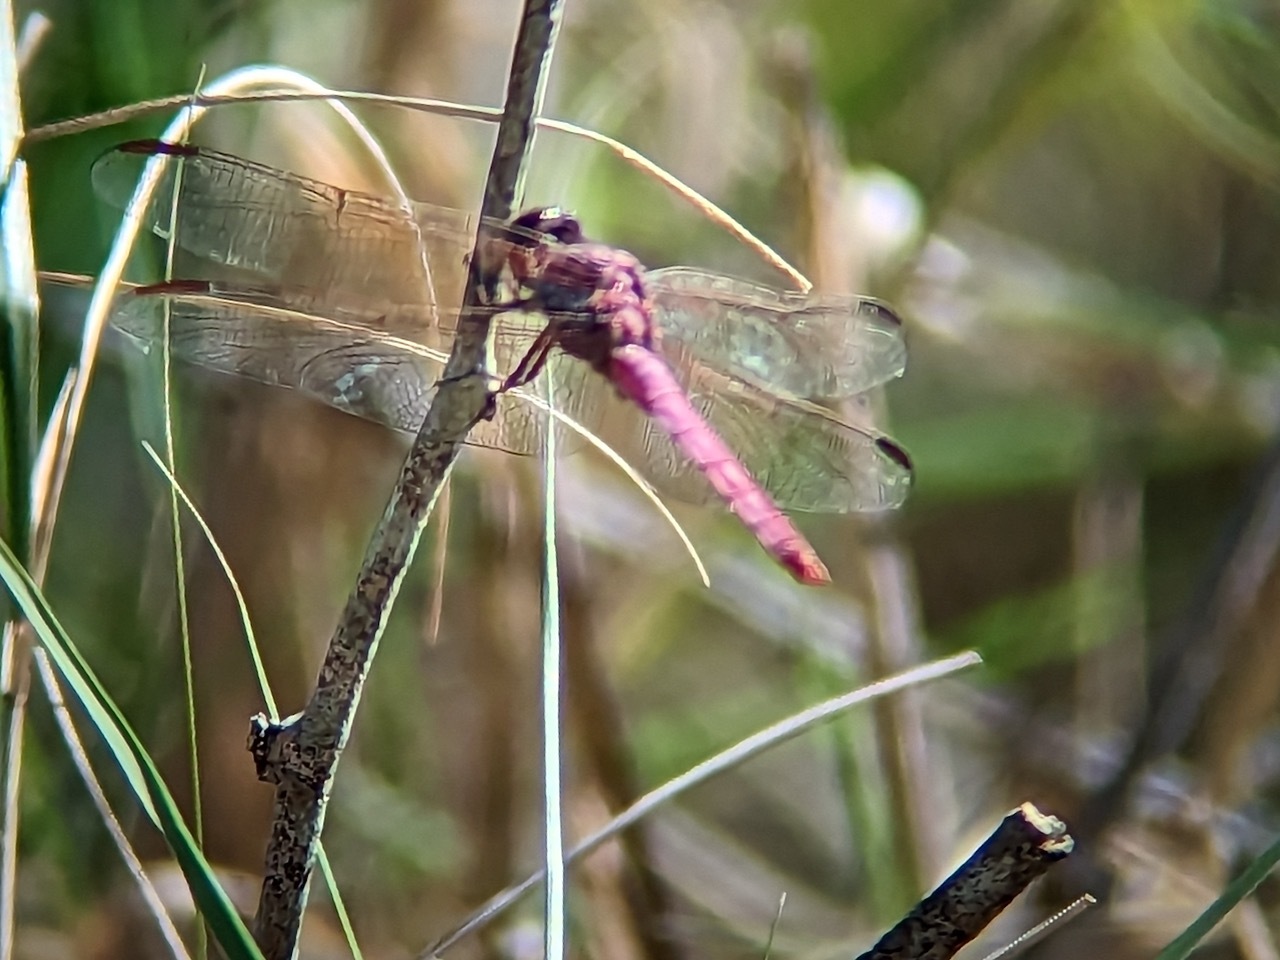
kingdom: Animalia
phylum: Arthropoda
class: Insecta
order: Odonata
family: Libellulidae
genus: Orthemis
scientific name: Orthemis ferruginea
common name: Roseate skimmer
